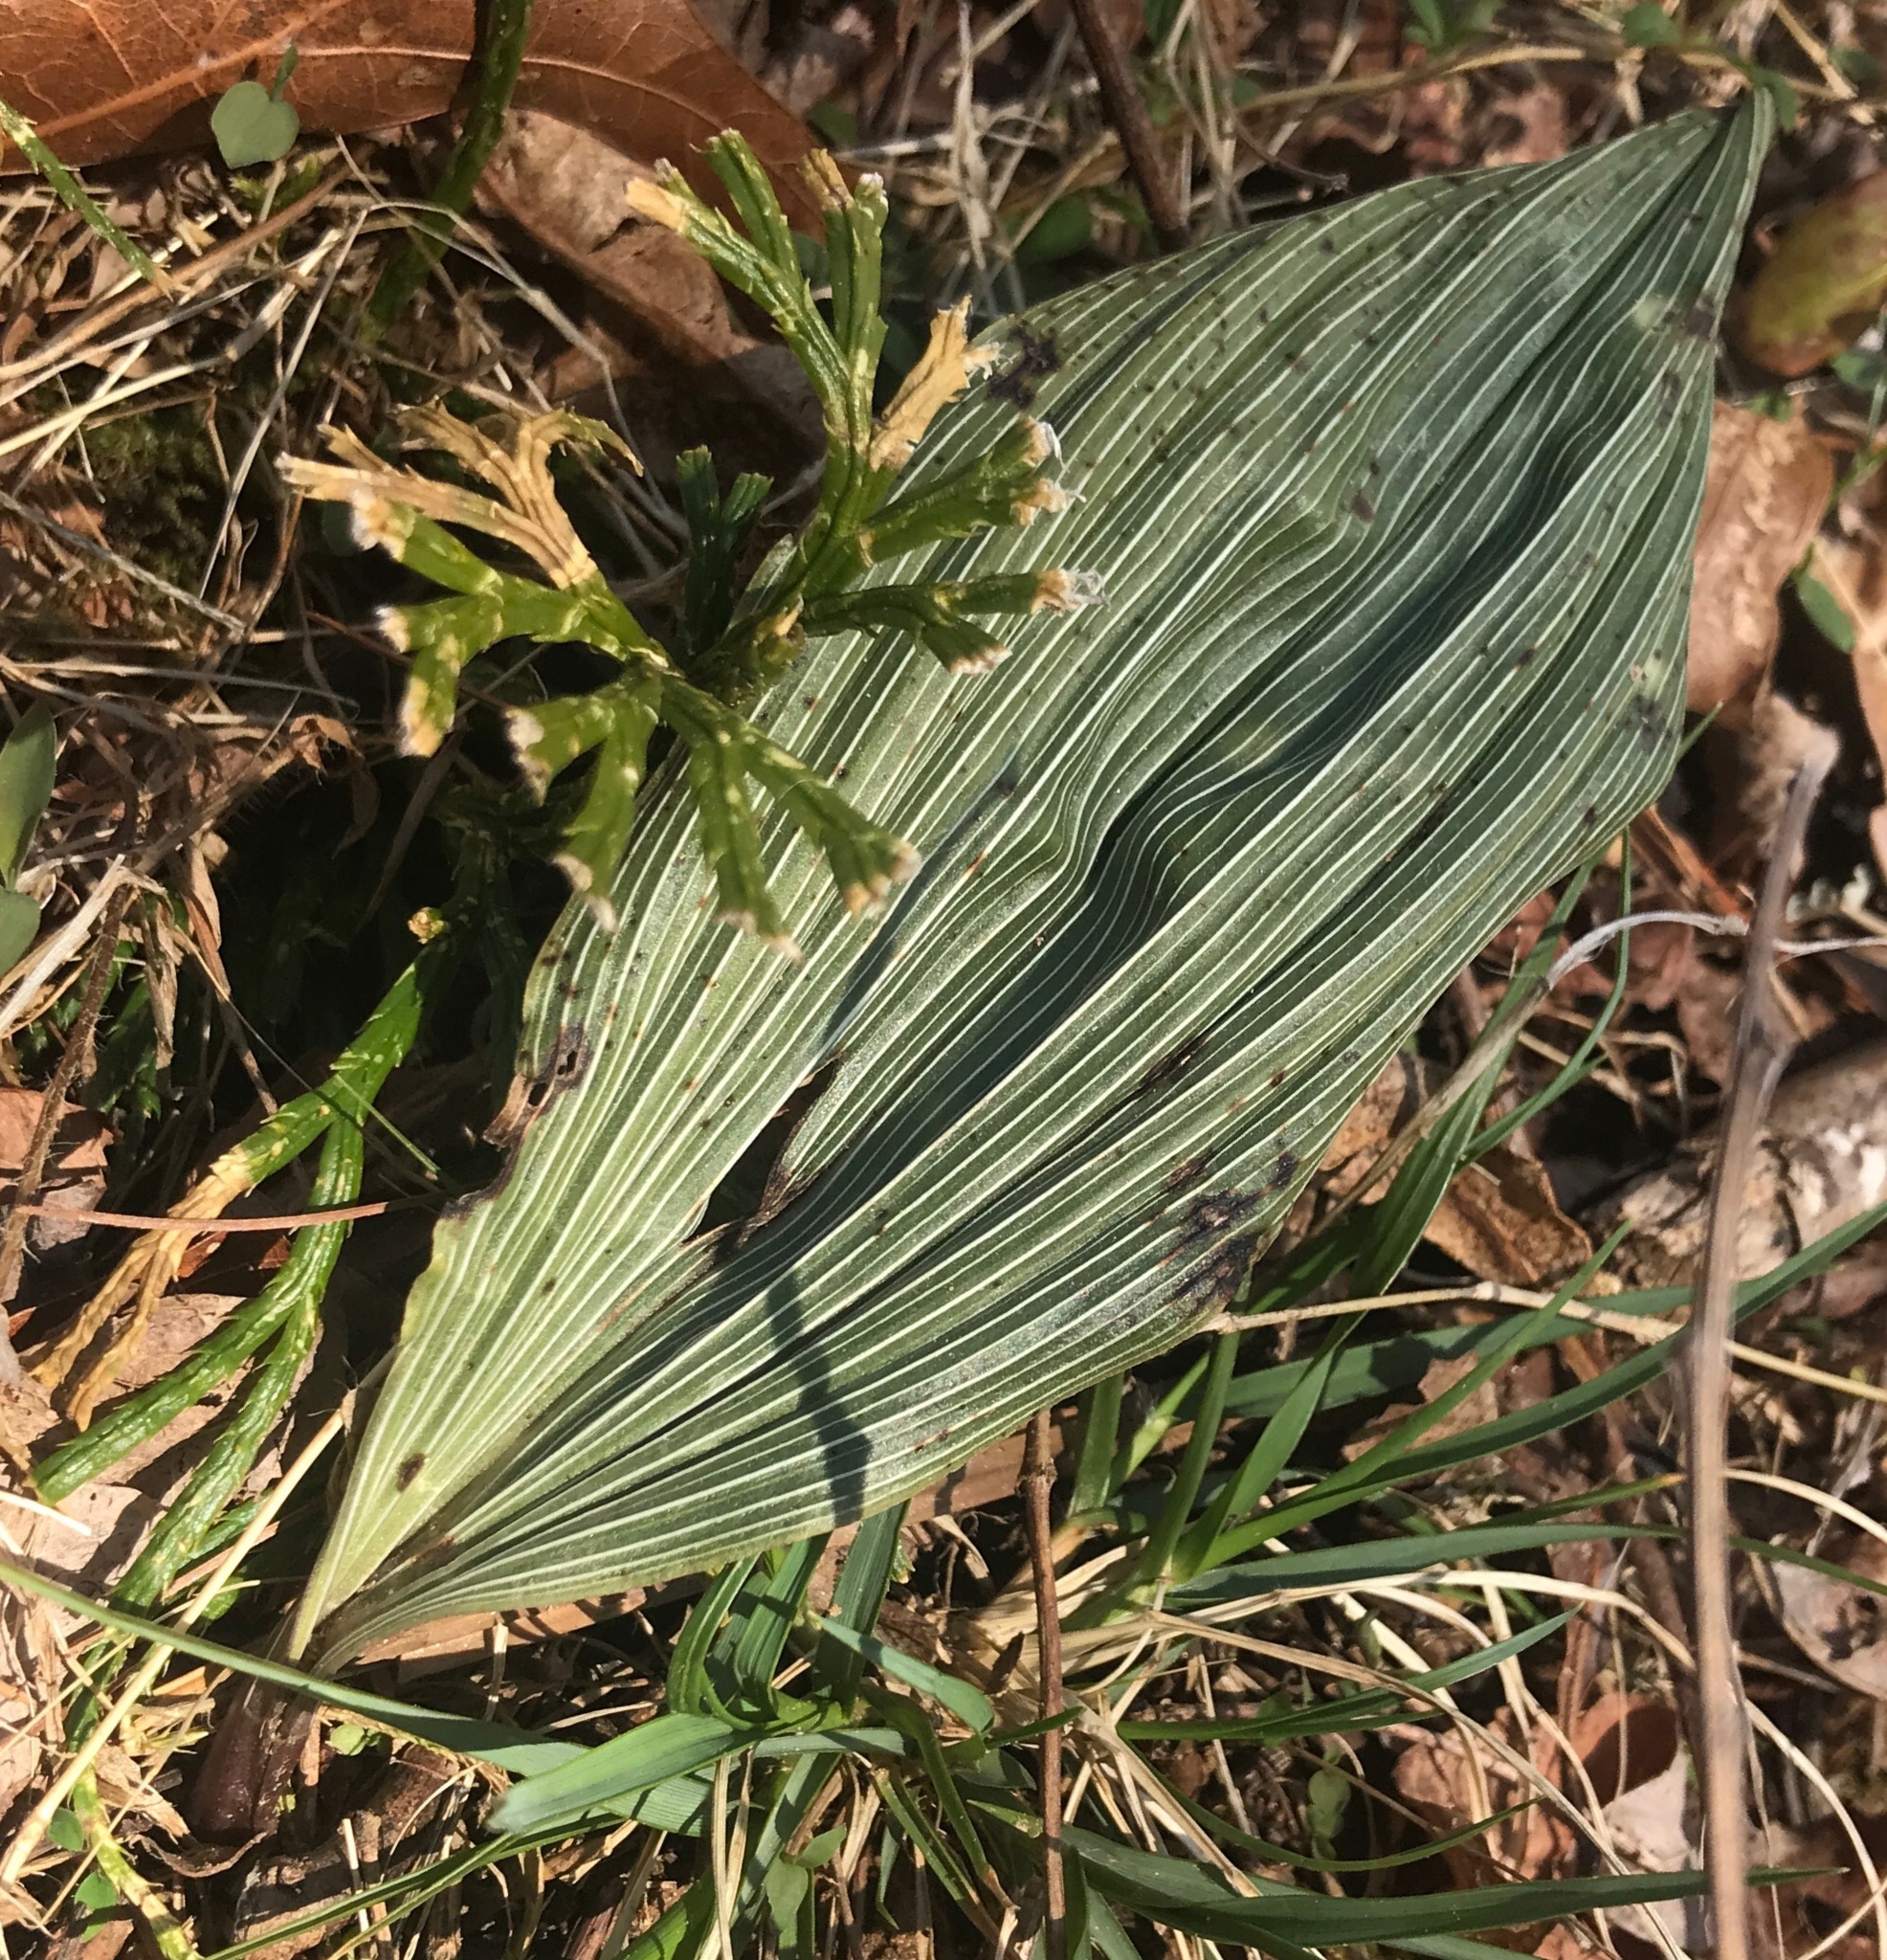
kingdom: Plantae
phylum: Tracheophyta
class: Liliopsida
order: Asparagales
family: Orchidaceae
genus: Aplectrum
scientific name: Aplectrum hyemale
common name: Adam-and-eve
